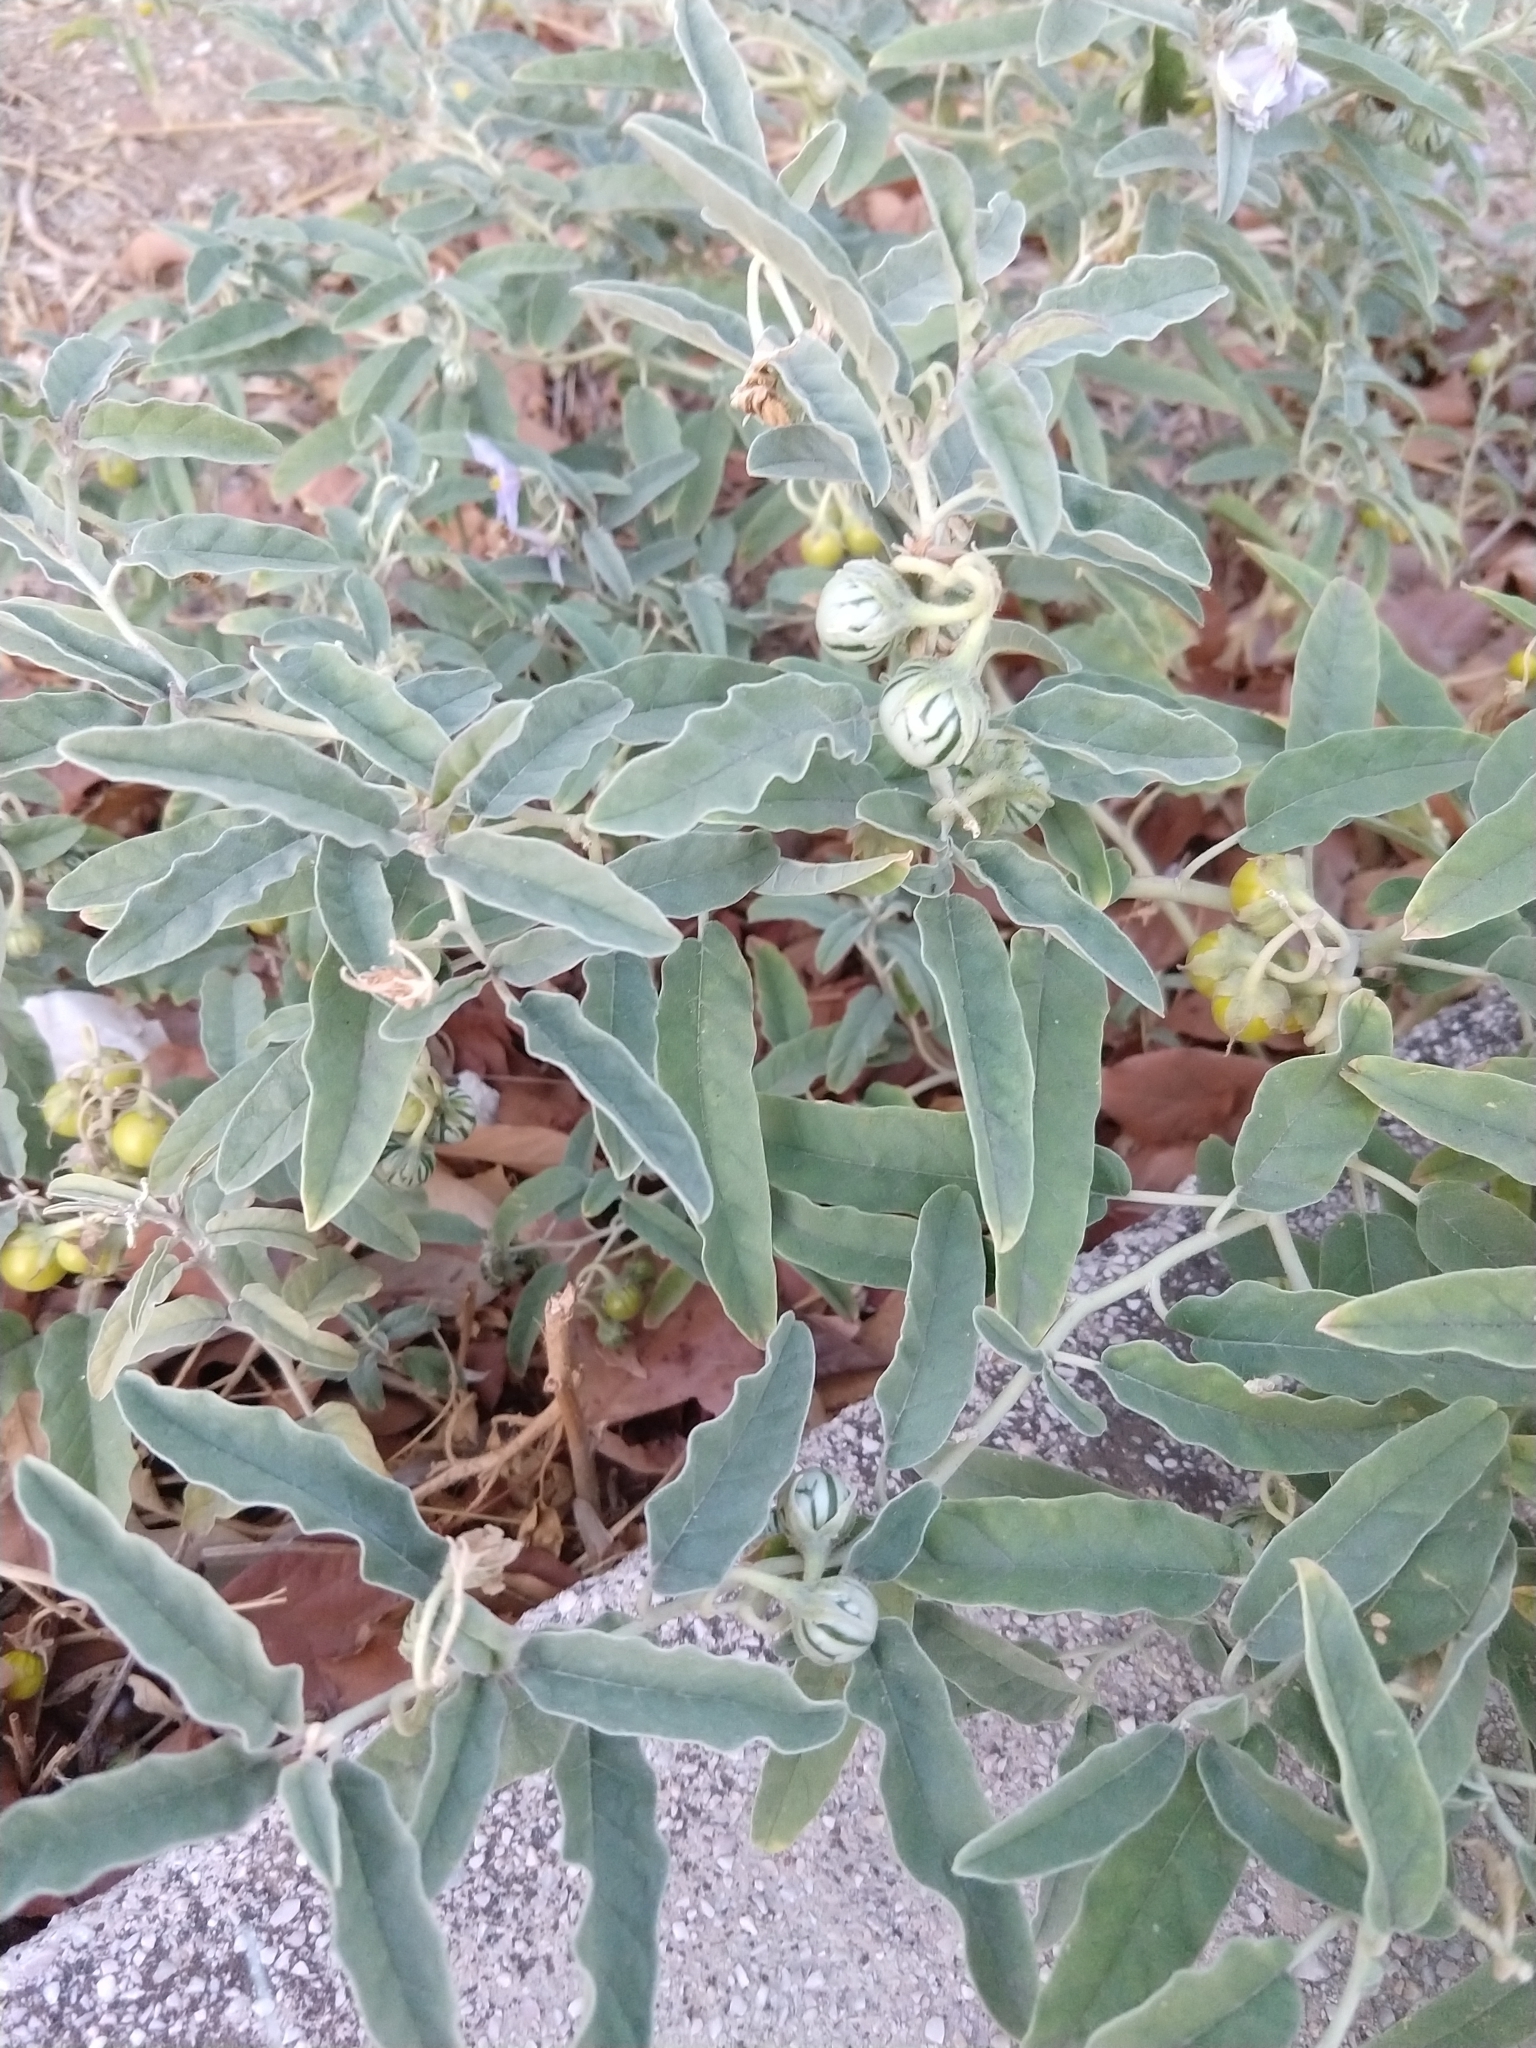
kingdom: Plantae
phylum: Tracheophyta
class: Magnoliopsida
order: Solanales
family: Solanaceae
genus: Solanum
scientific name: Solanum elaeagnifolium
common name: Silverleaf nightshade
